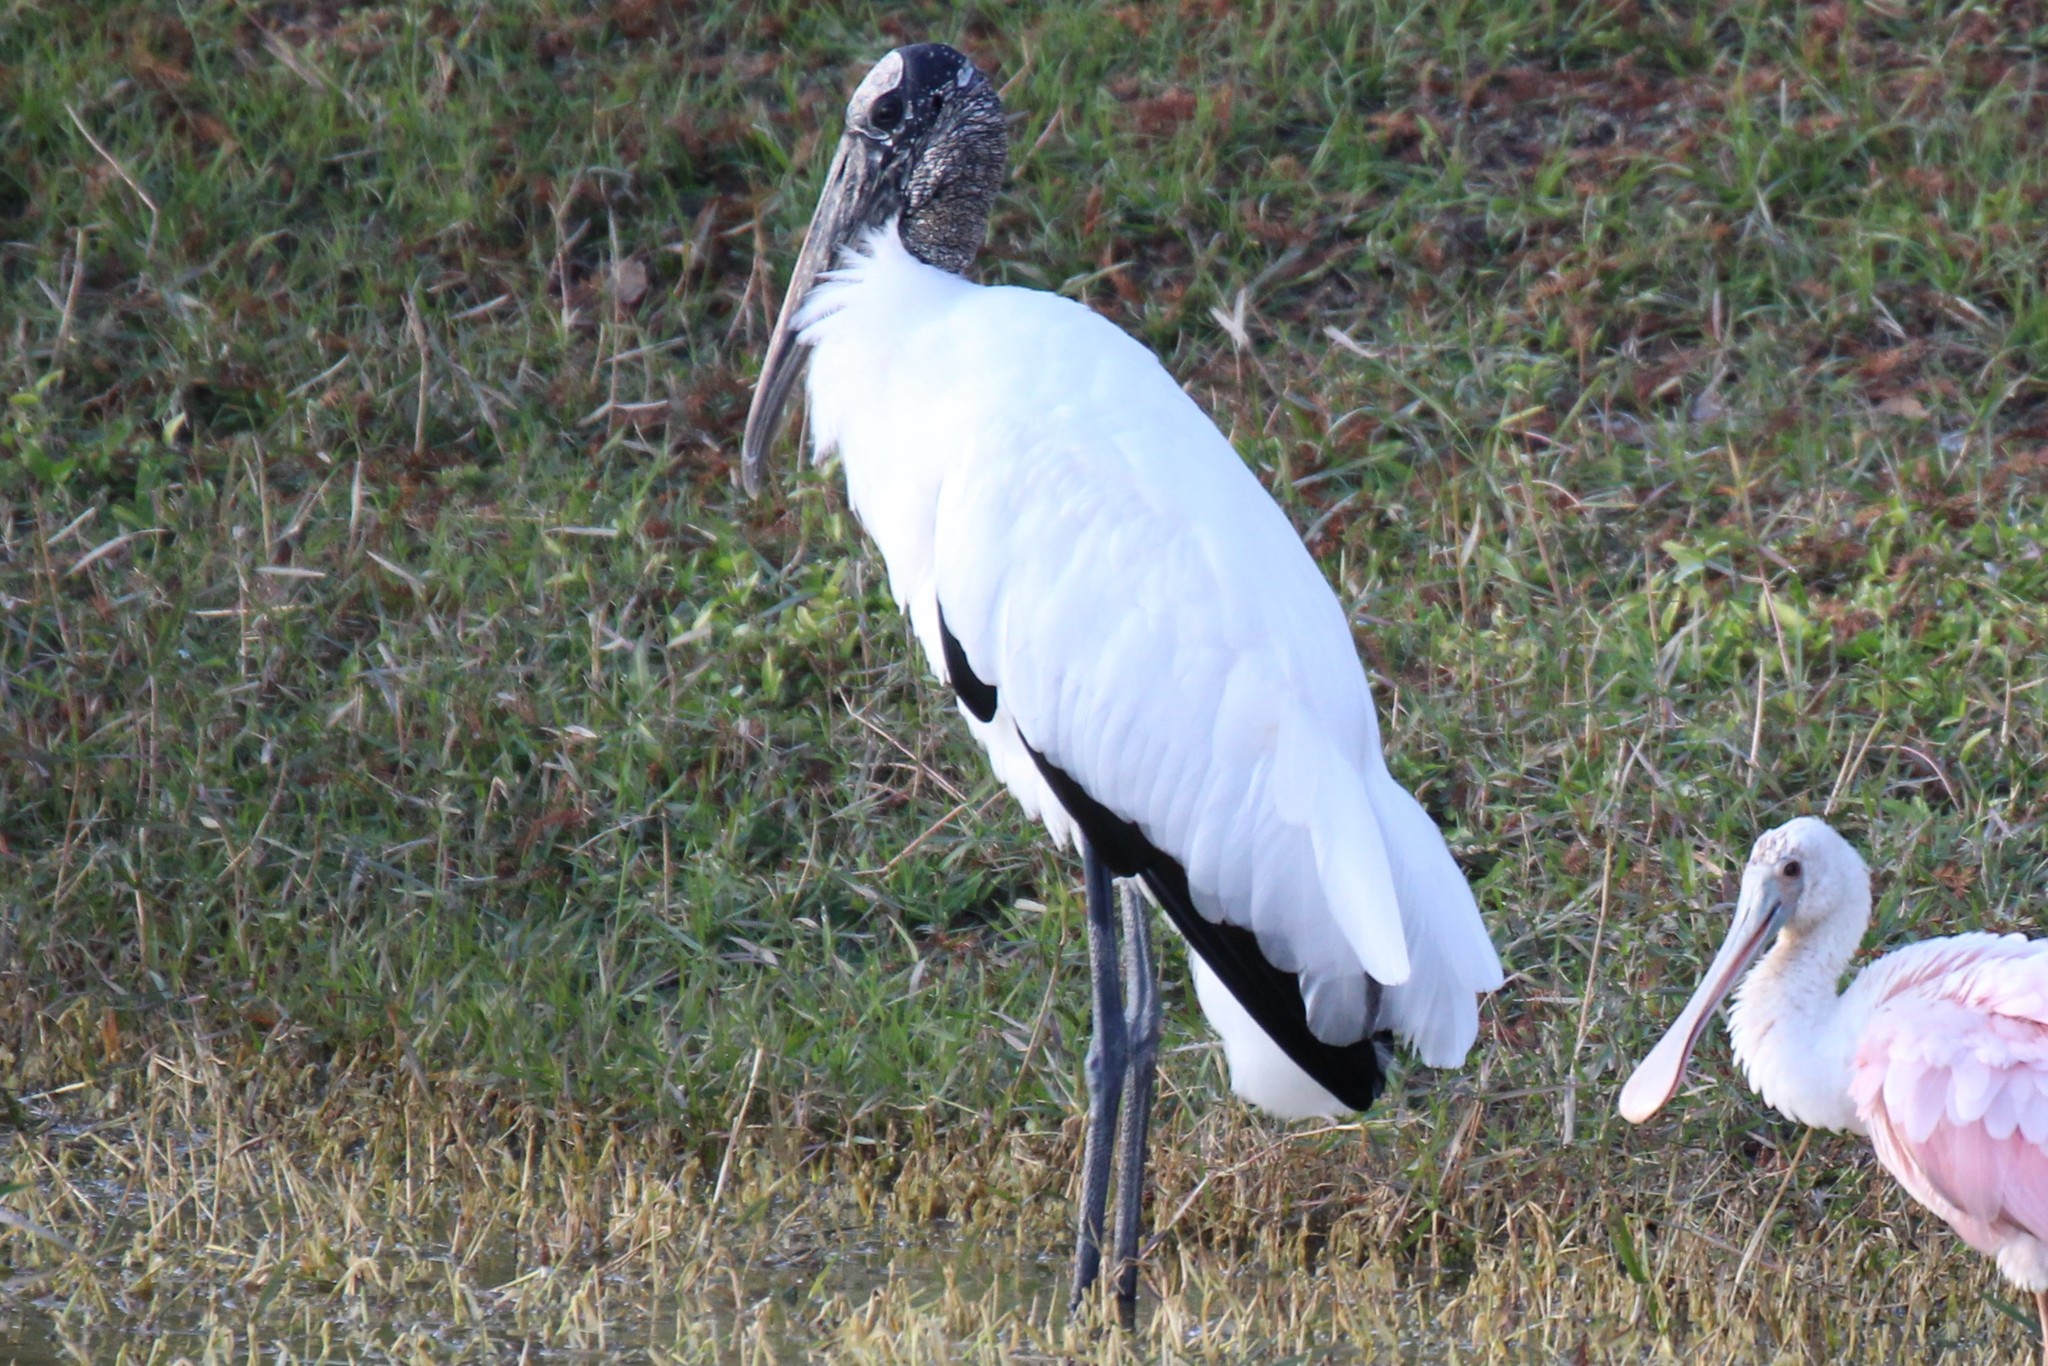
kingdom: Animalia
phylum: Chordata
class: Aves
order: Ciconiiformes
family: Ciconiidae
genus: Mycteria
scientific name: Mycteria americana
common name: Wood stork
